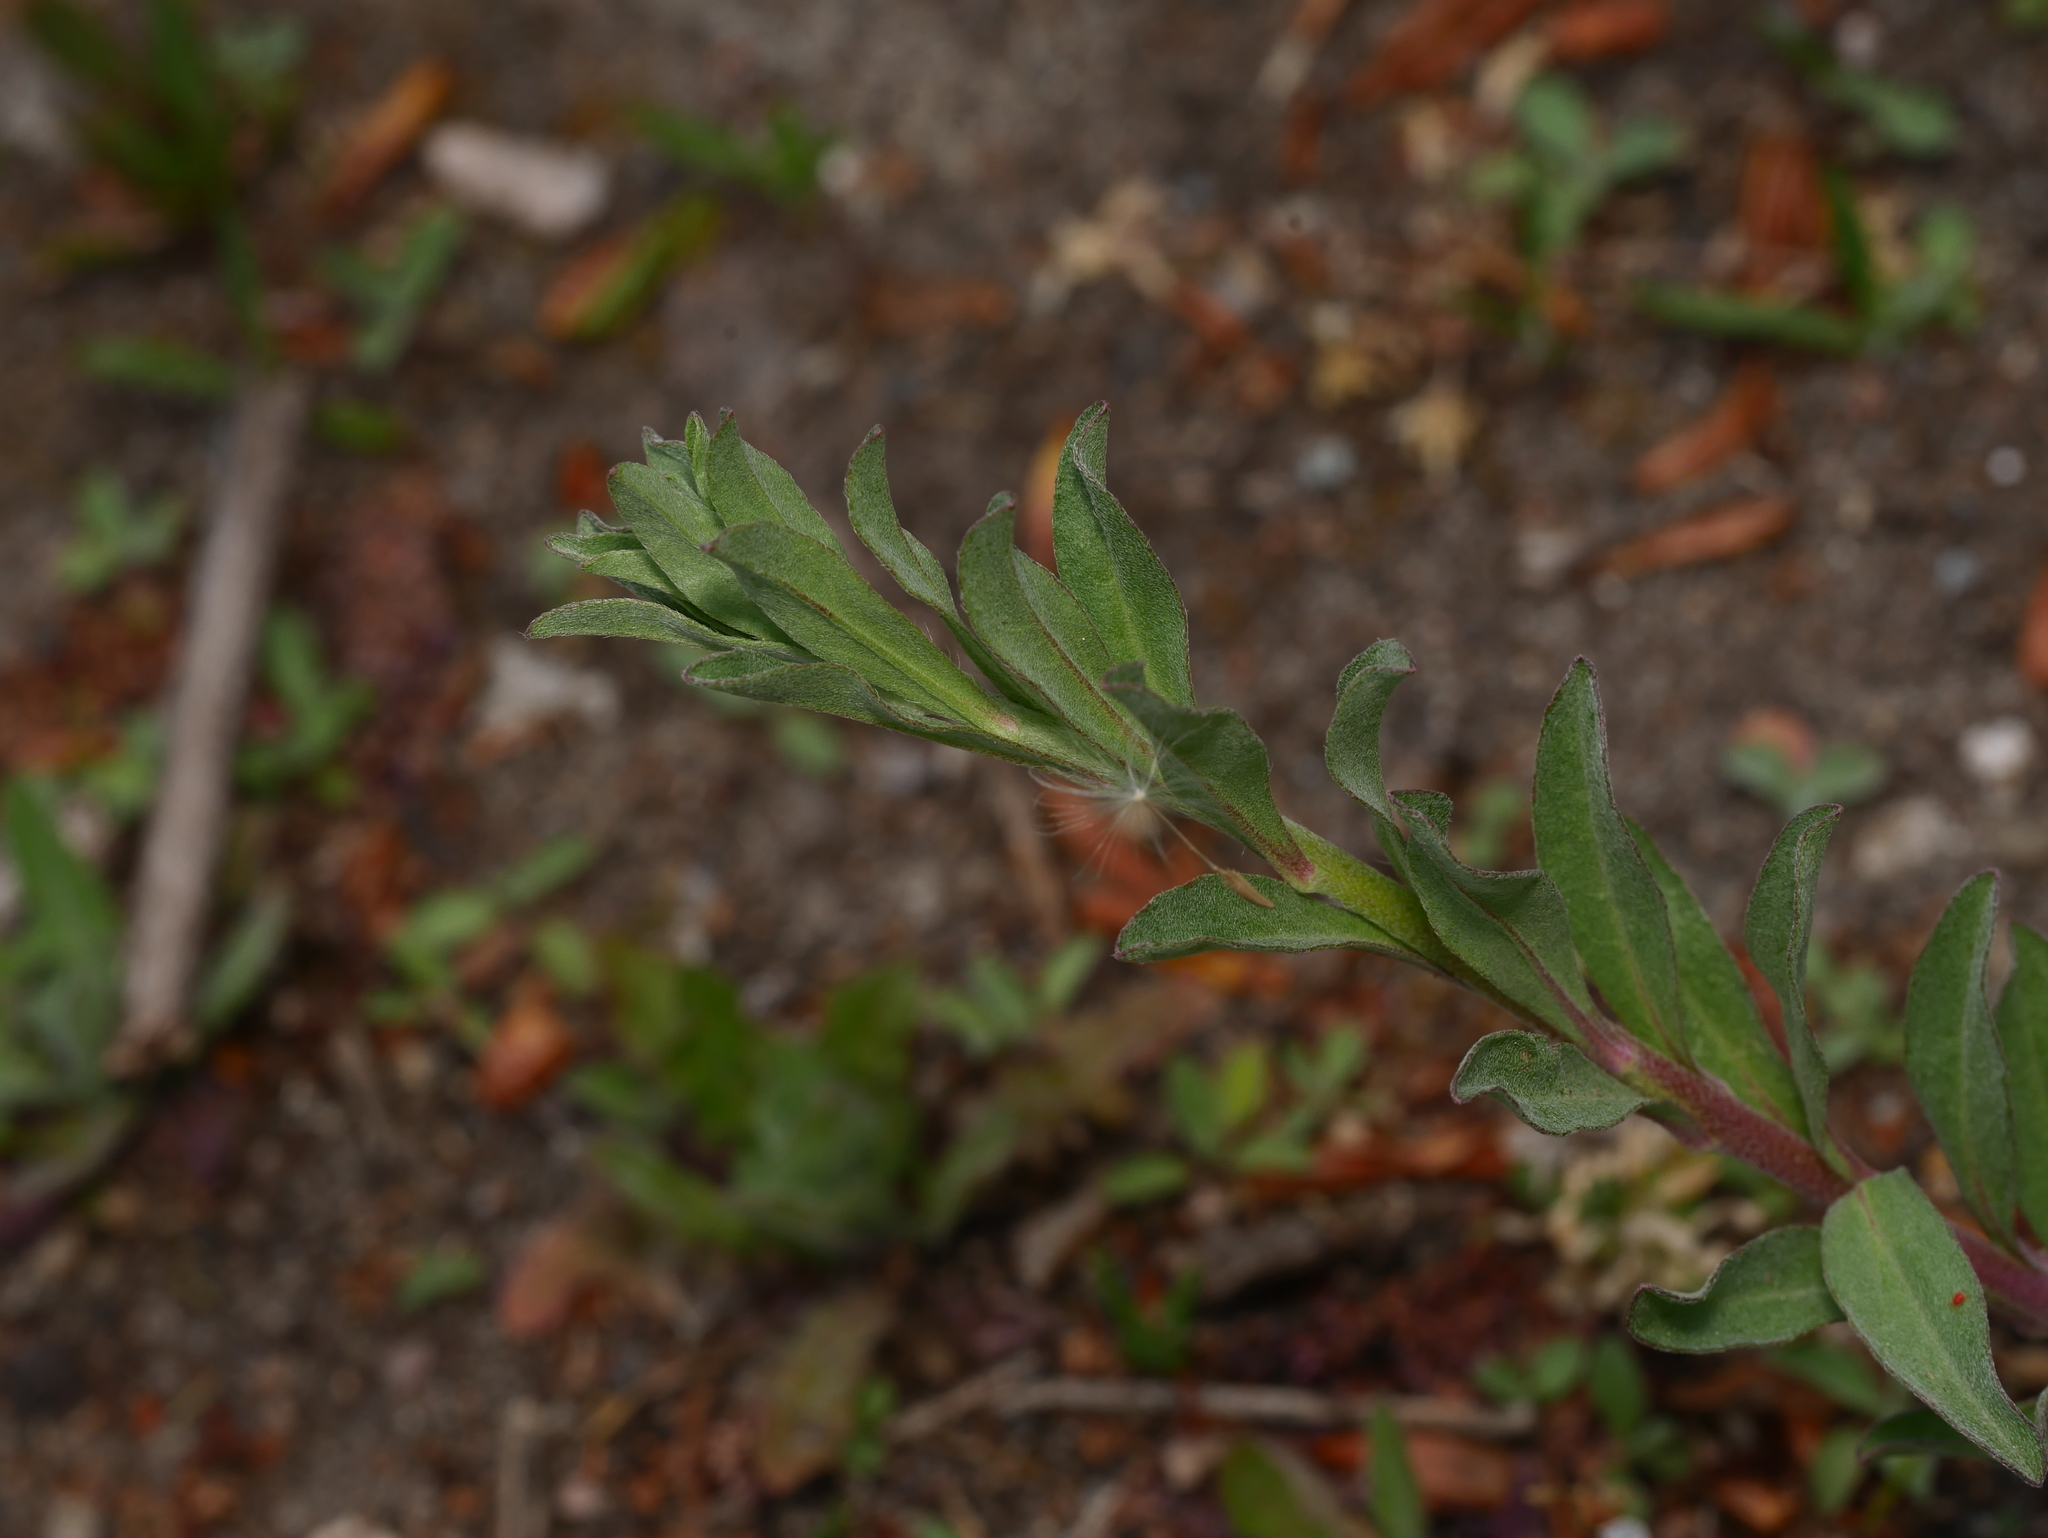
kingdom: Plantae
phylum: Tracheophyta
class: Magnoliopsida
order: Brassicales
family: Brassicaceae
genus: Berteroa
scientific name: Berteroa incana
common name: Hoary alison
